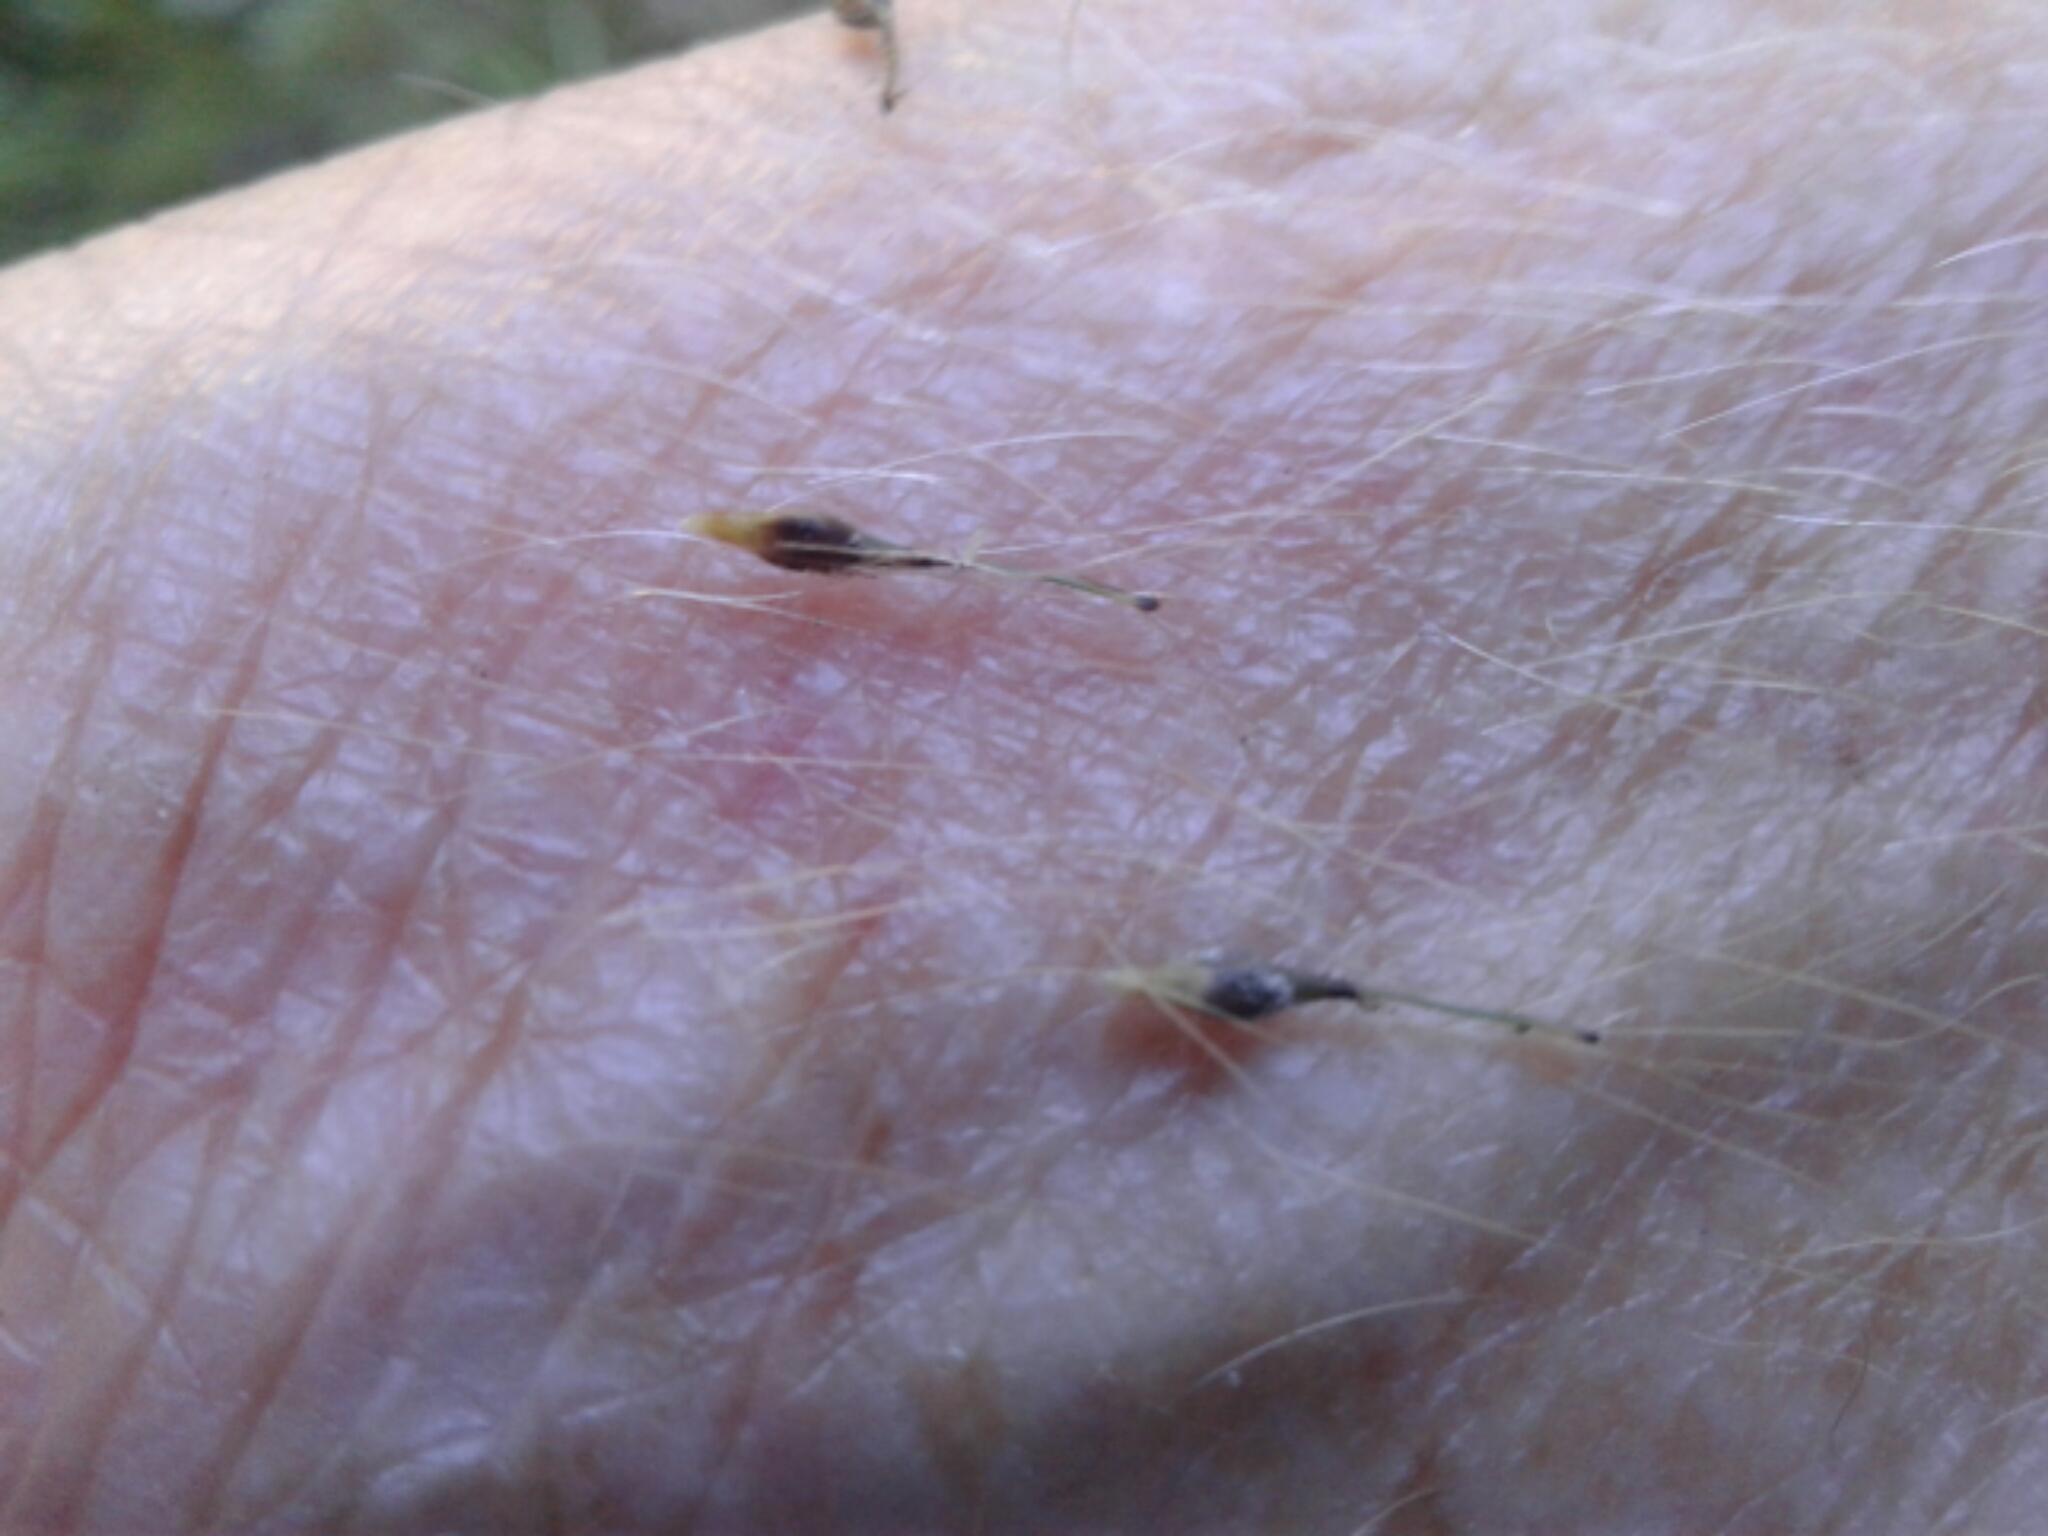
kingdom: Plantae
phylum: Tracheophyta
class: Liliopsida
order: Poales
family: Cyperaceae
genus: Carex
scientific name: Carex uncinata
